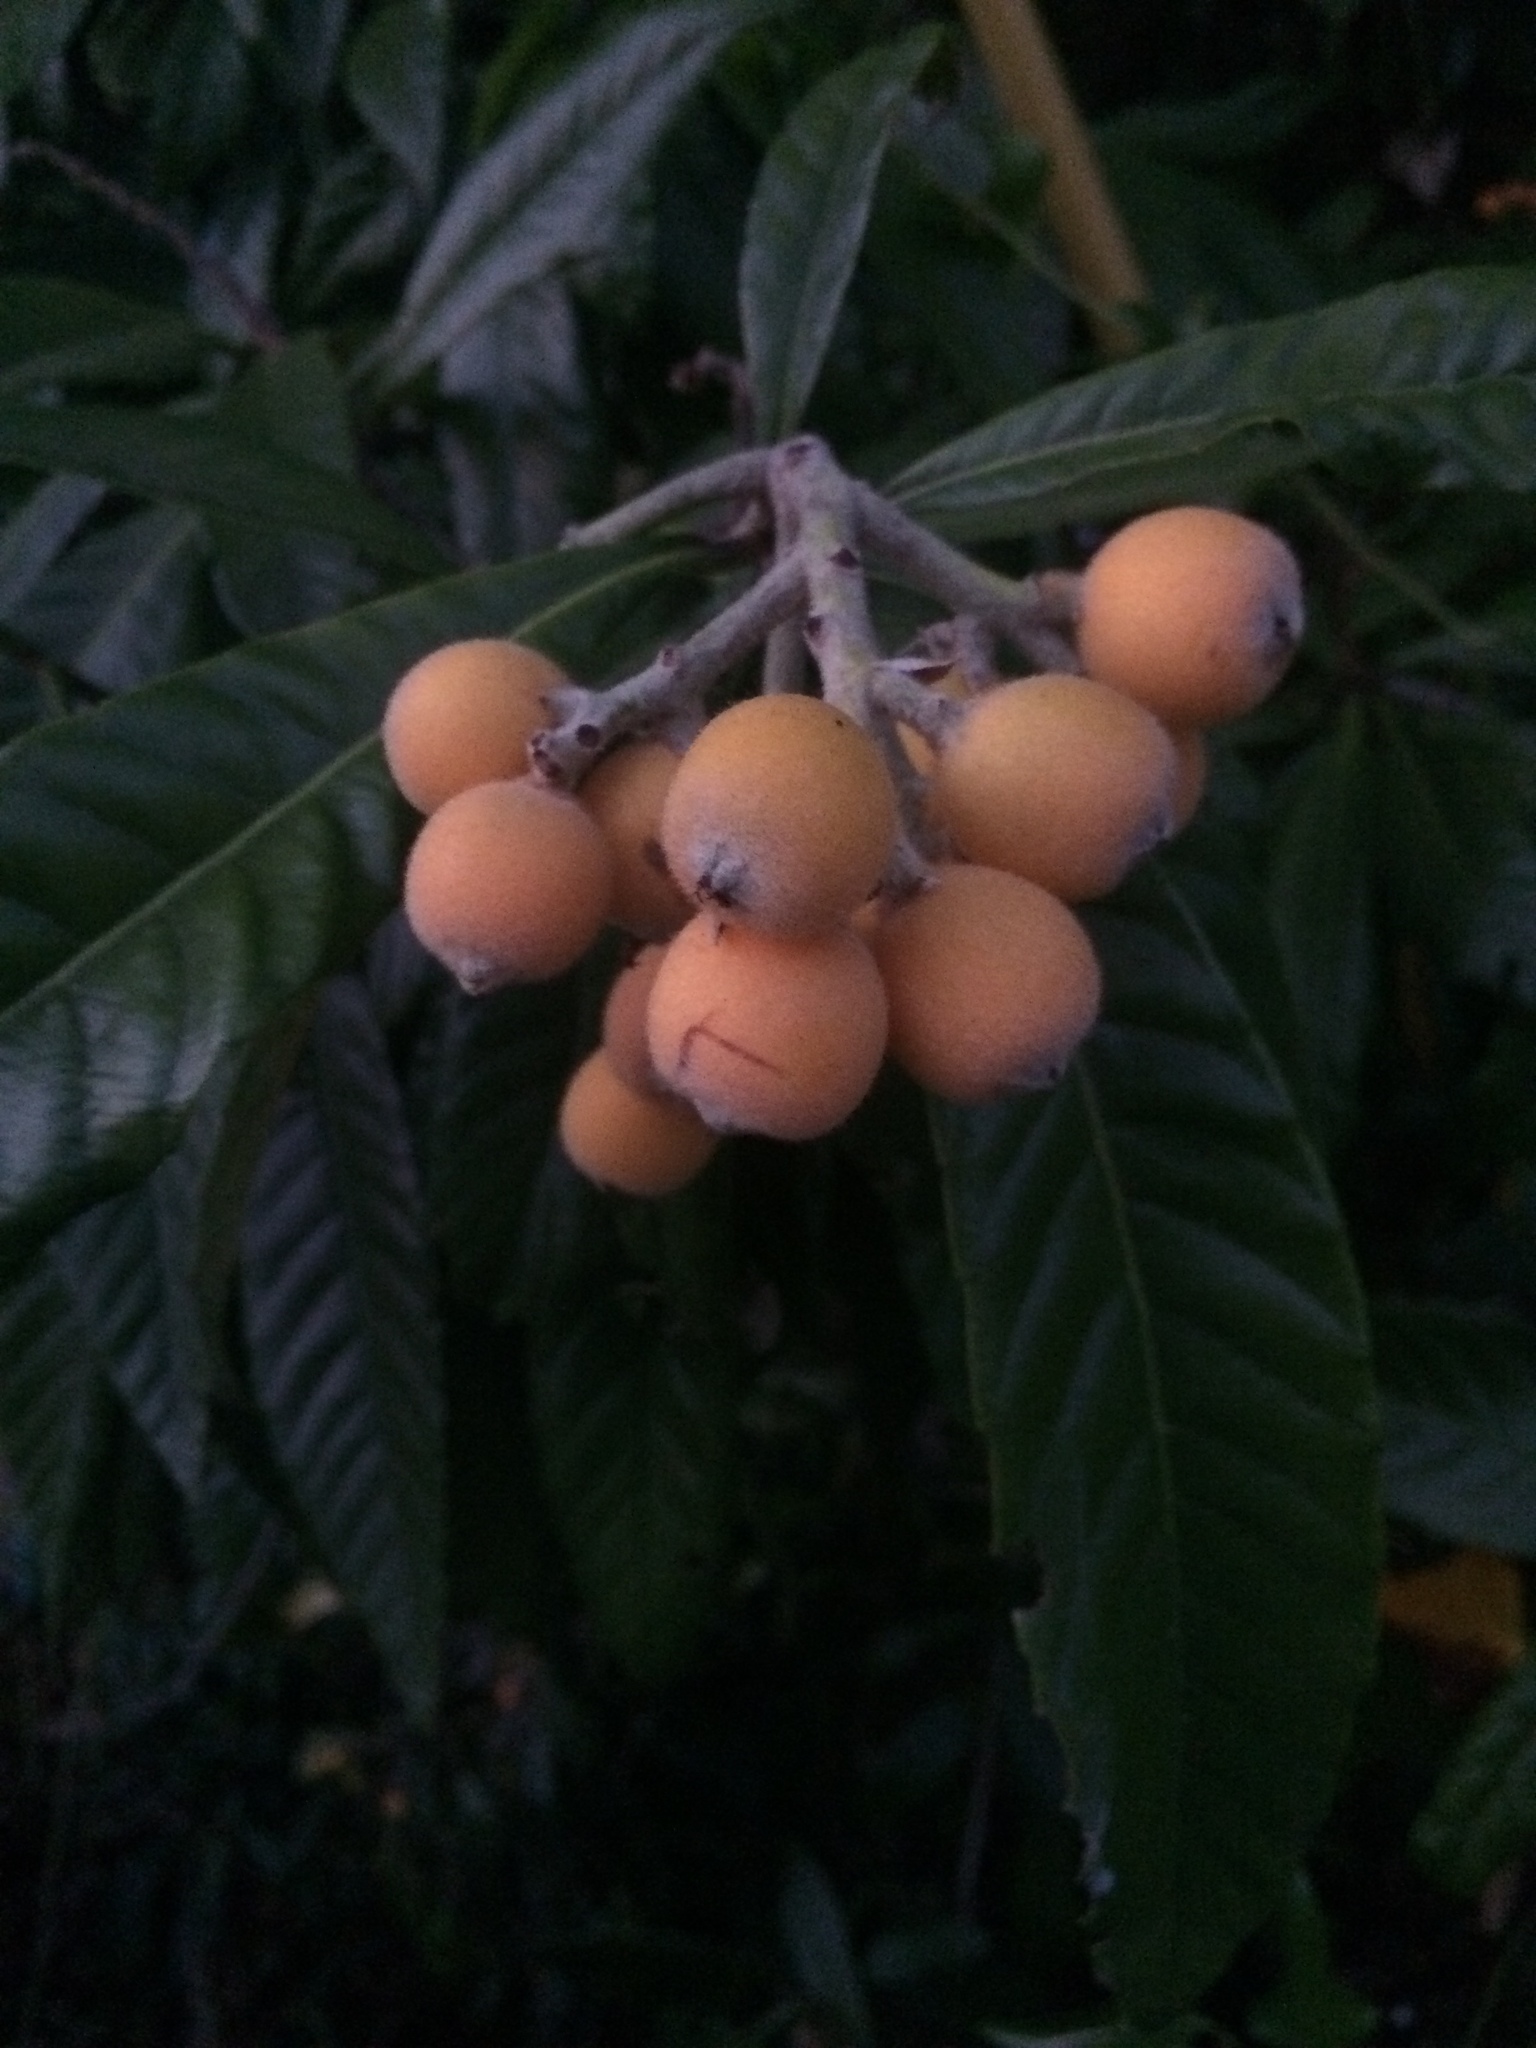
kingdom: Plantae
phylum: Tracheophyta
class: Magnoliopsida
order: Rosales
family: Rosaceae
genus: Rhaphiolepis
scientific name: Rhaphiolepis bibas
